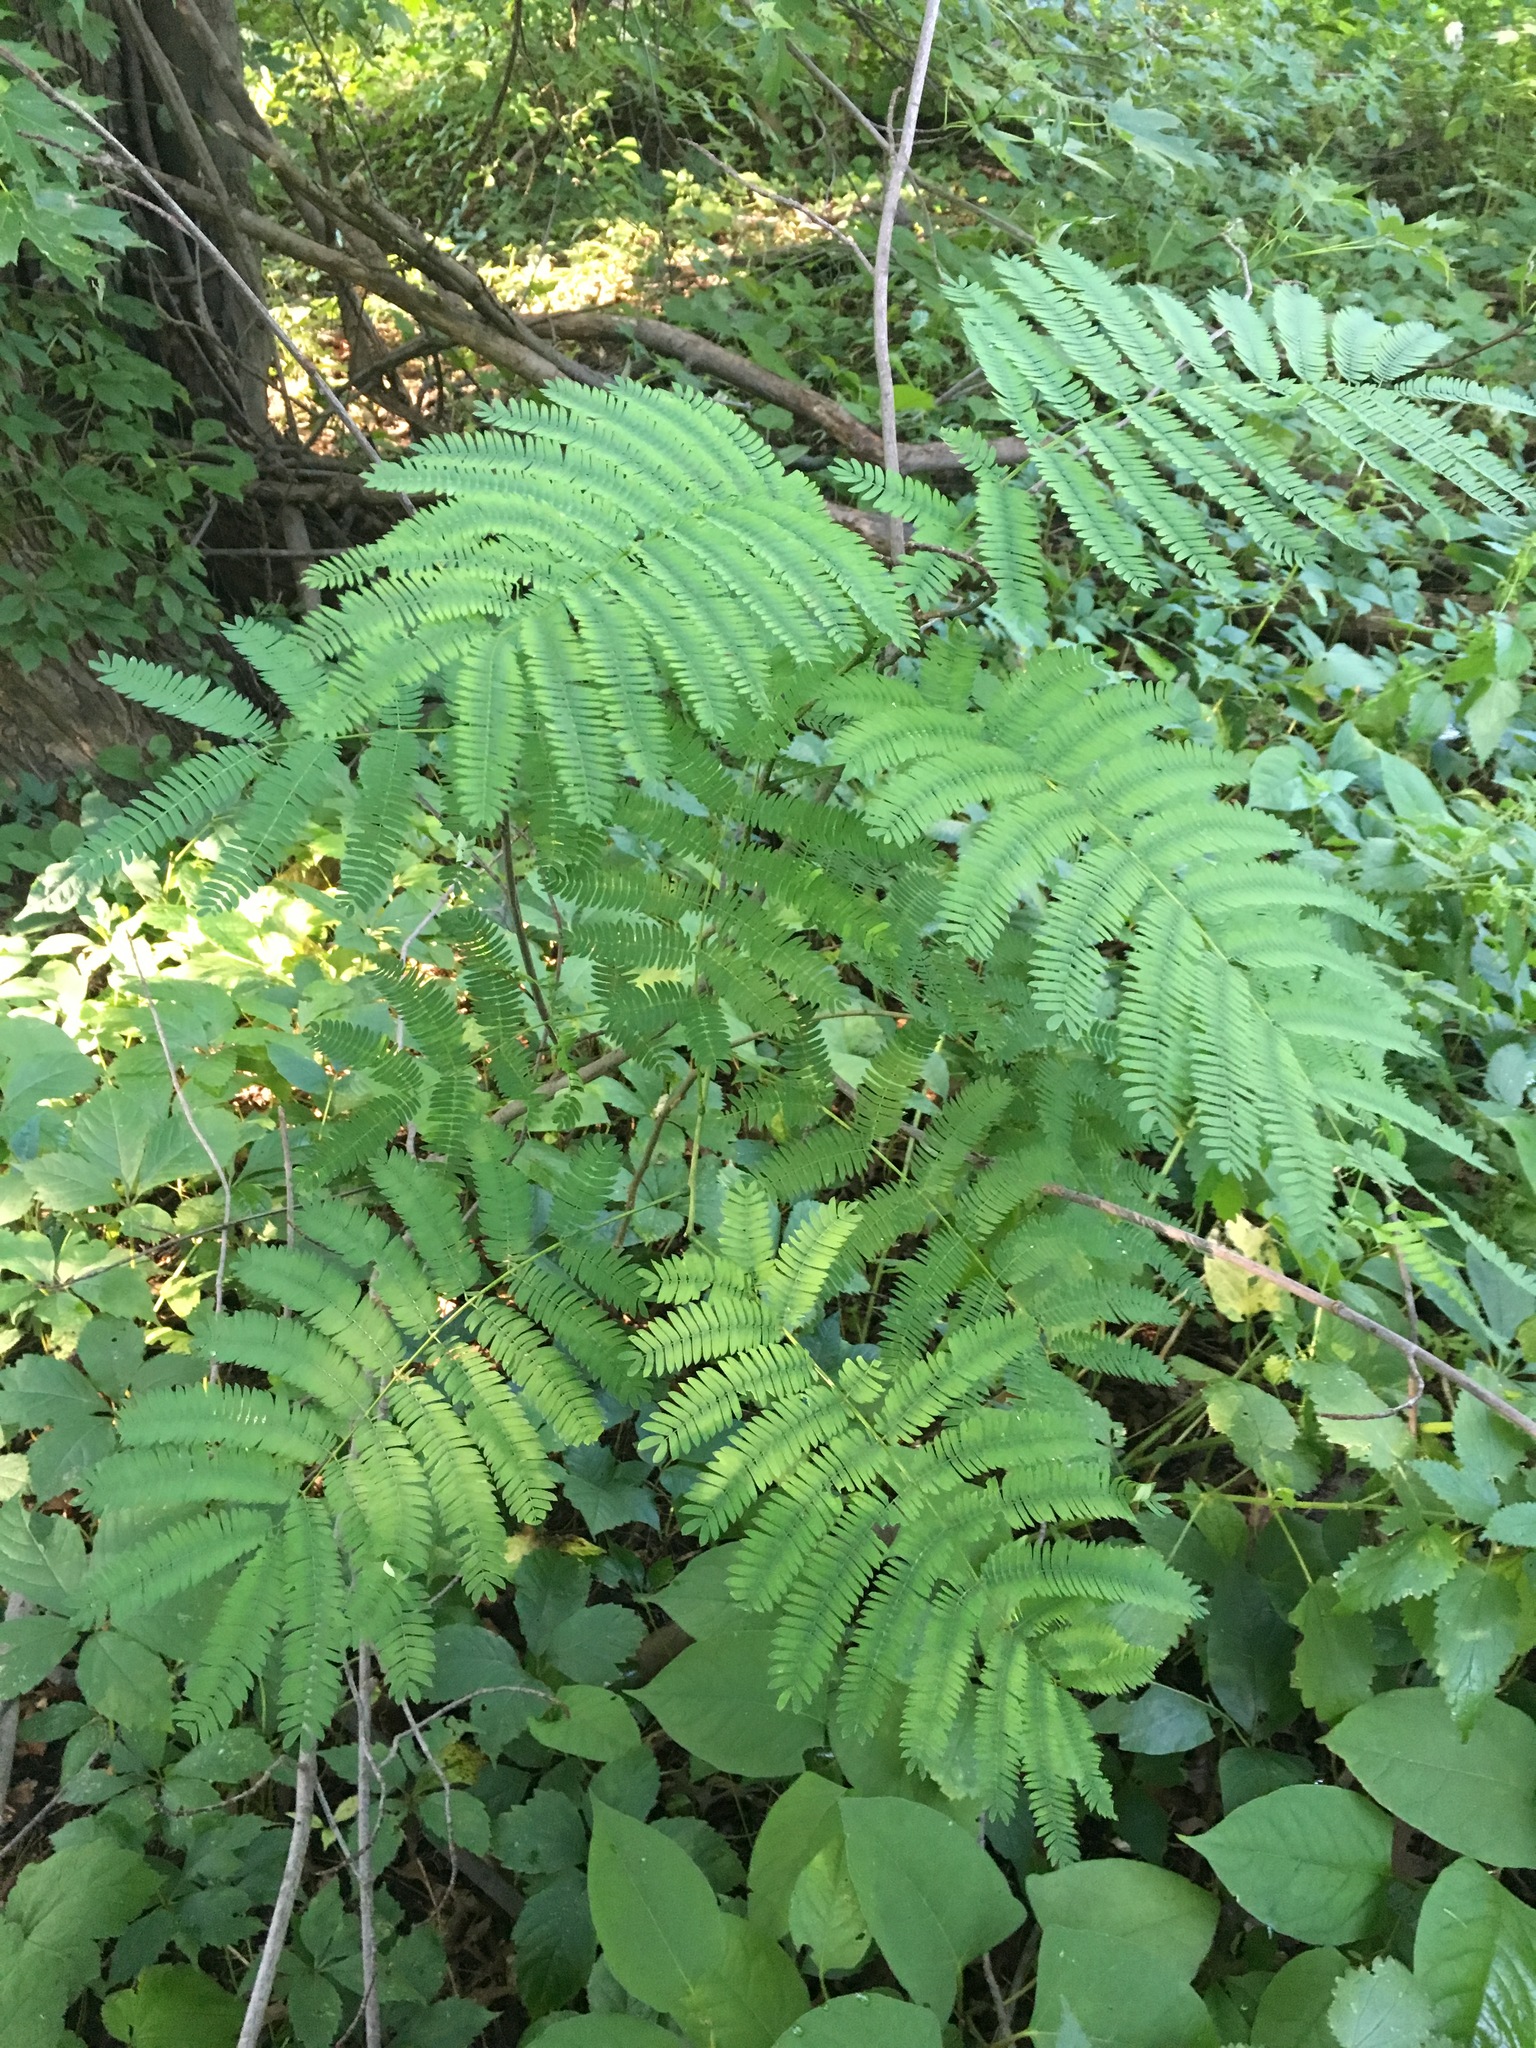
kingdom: Plantae
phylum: Tracheophyta
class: Magnoliopsida
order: Fabales
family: Fabaceae
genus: Albizia
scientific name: Albizia julibrissin
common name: Silktree
